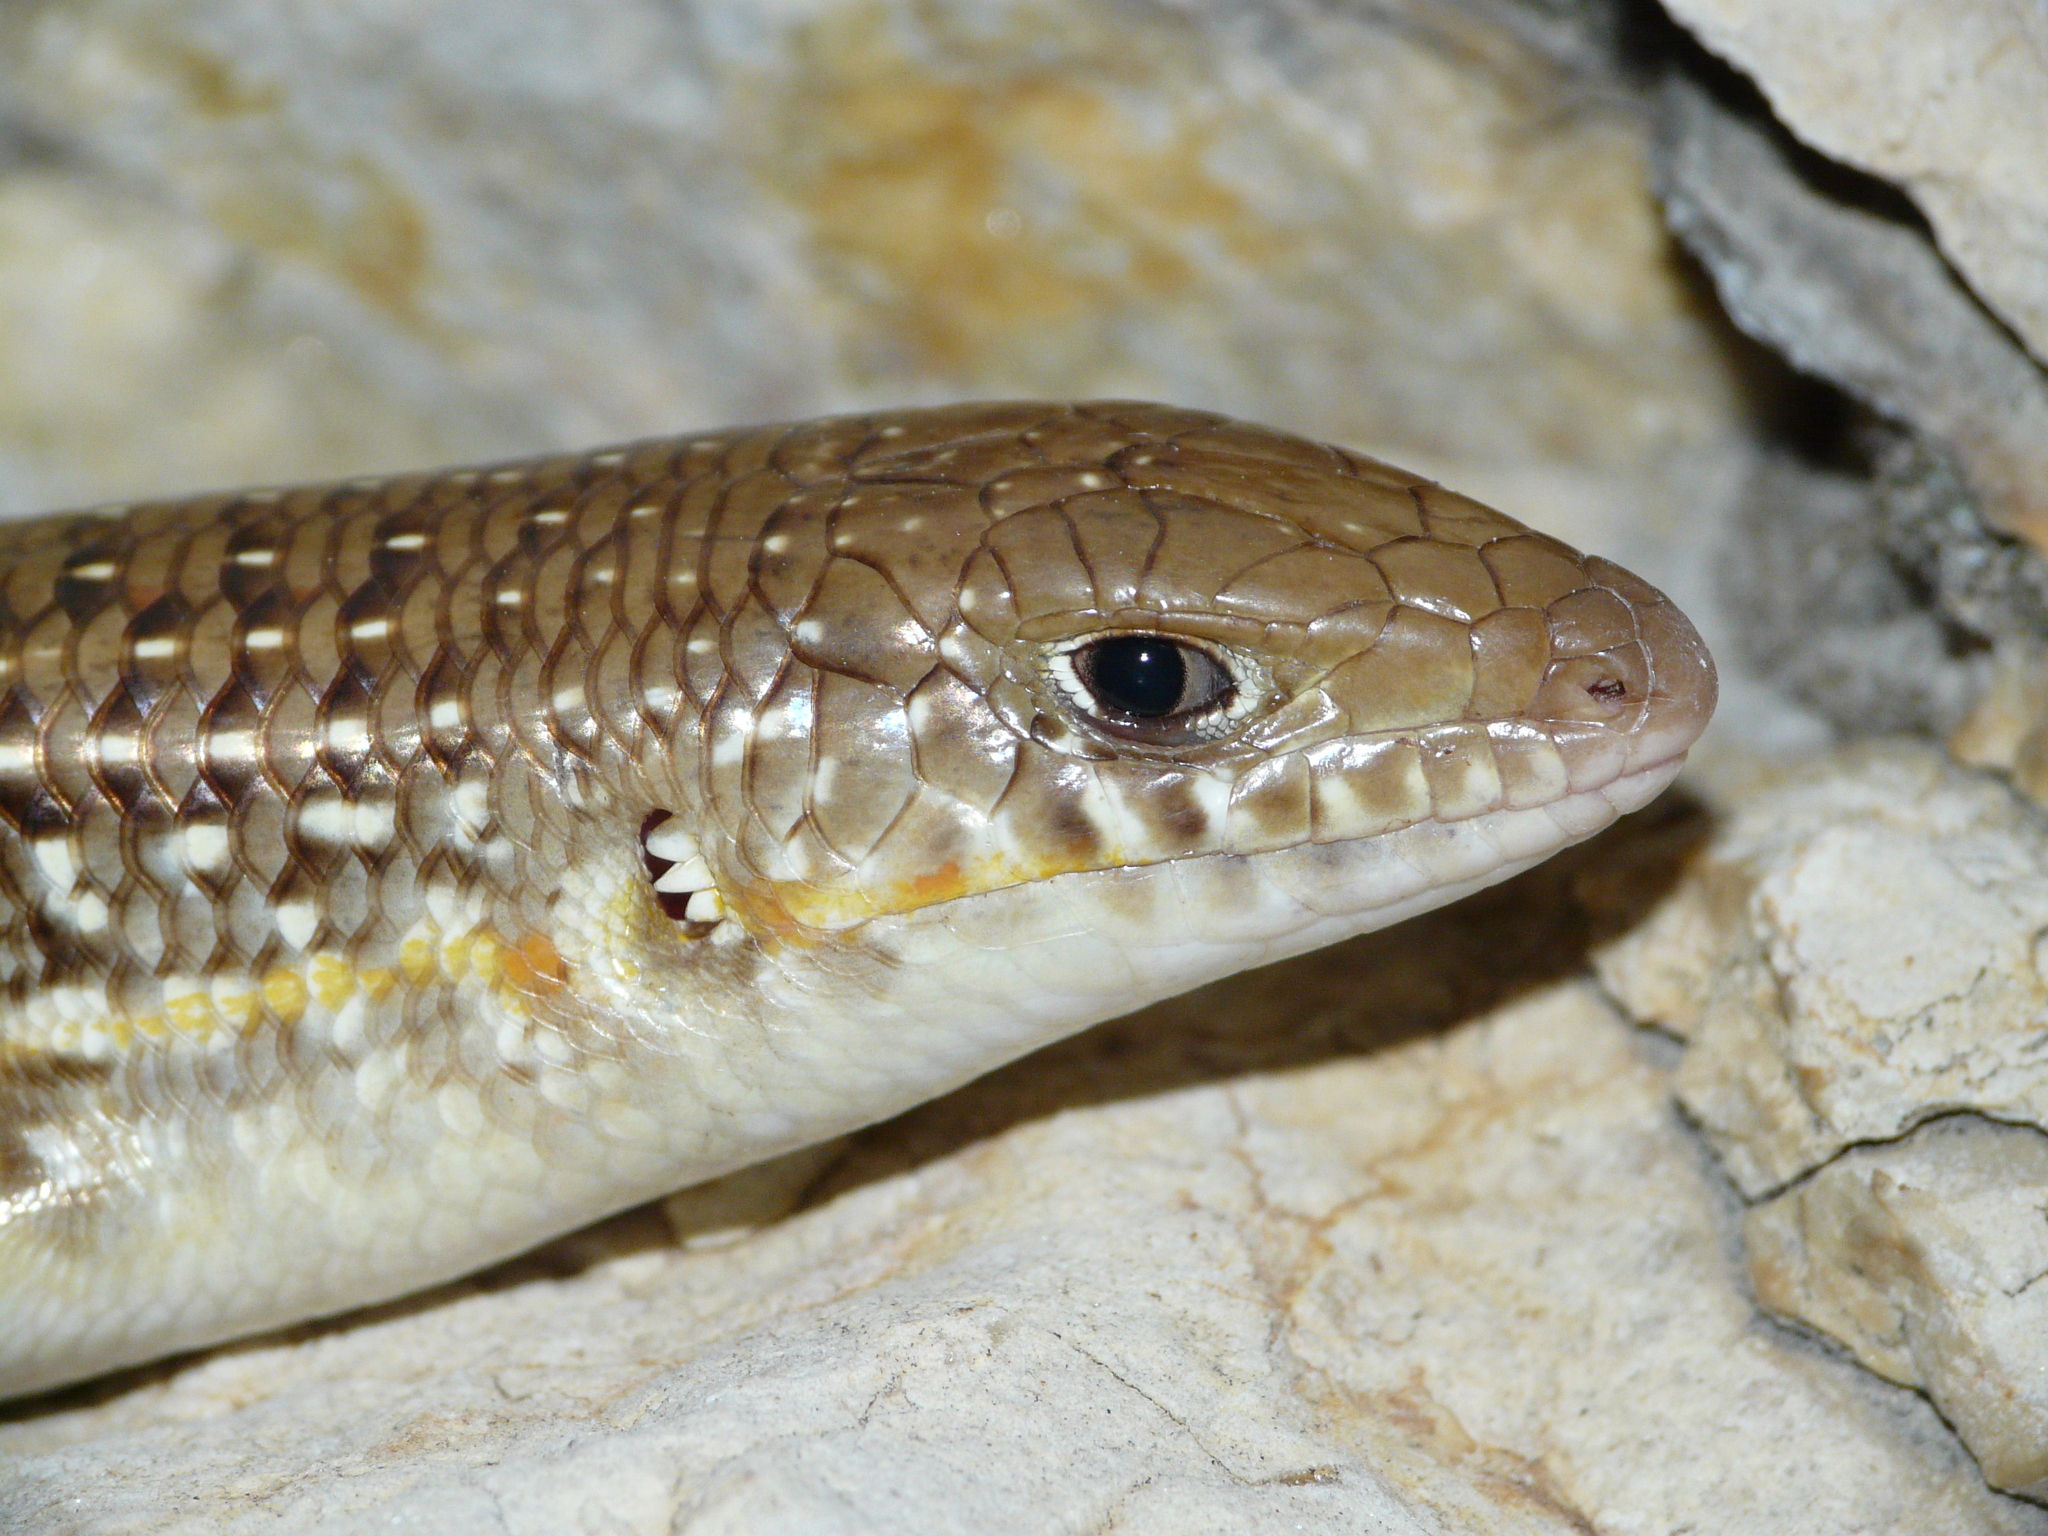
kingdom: Animalia
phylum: Chordata
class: Squamata
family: Scincidae
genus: Eumeces
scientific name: Eumeces schneiderii
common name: Schneider's skink
